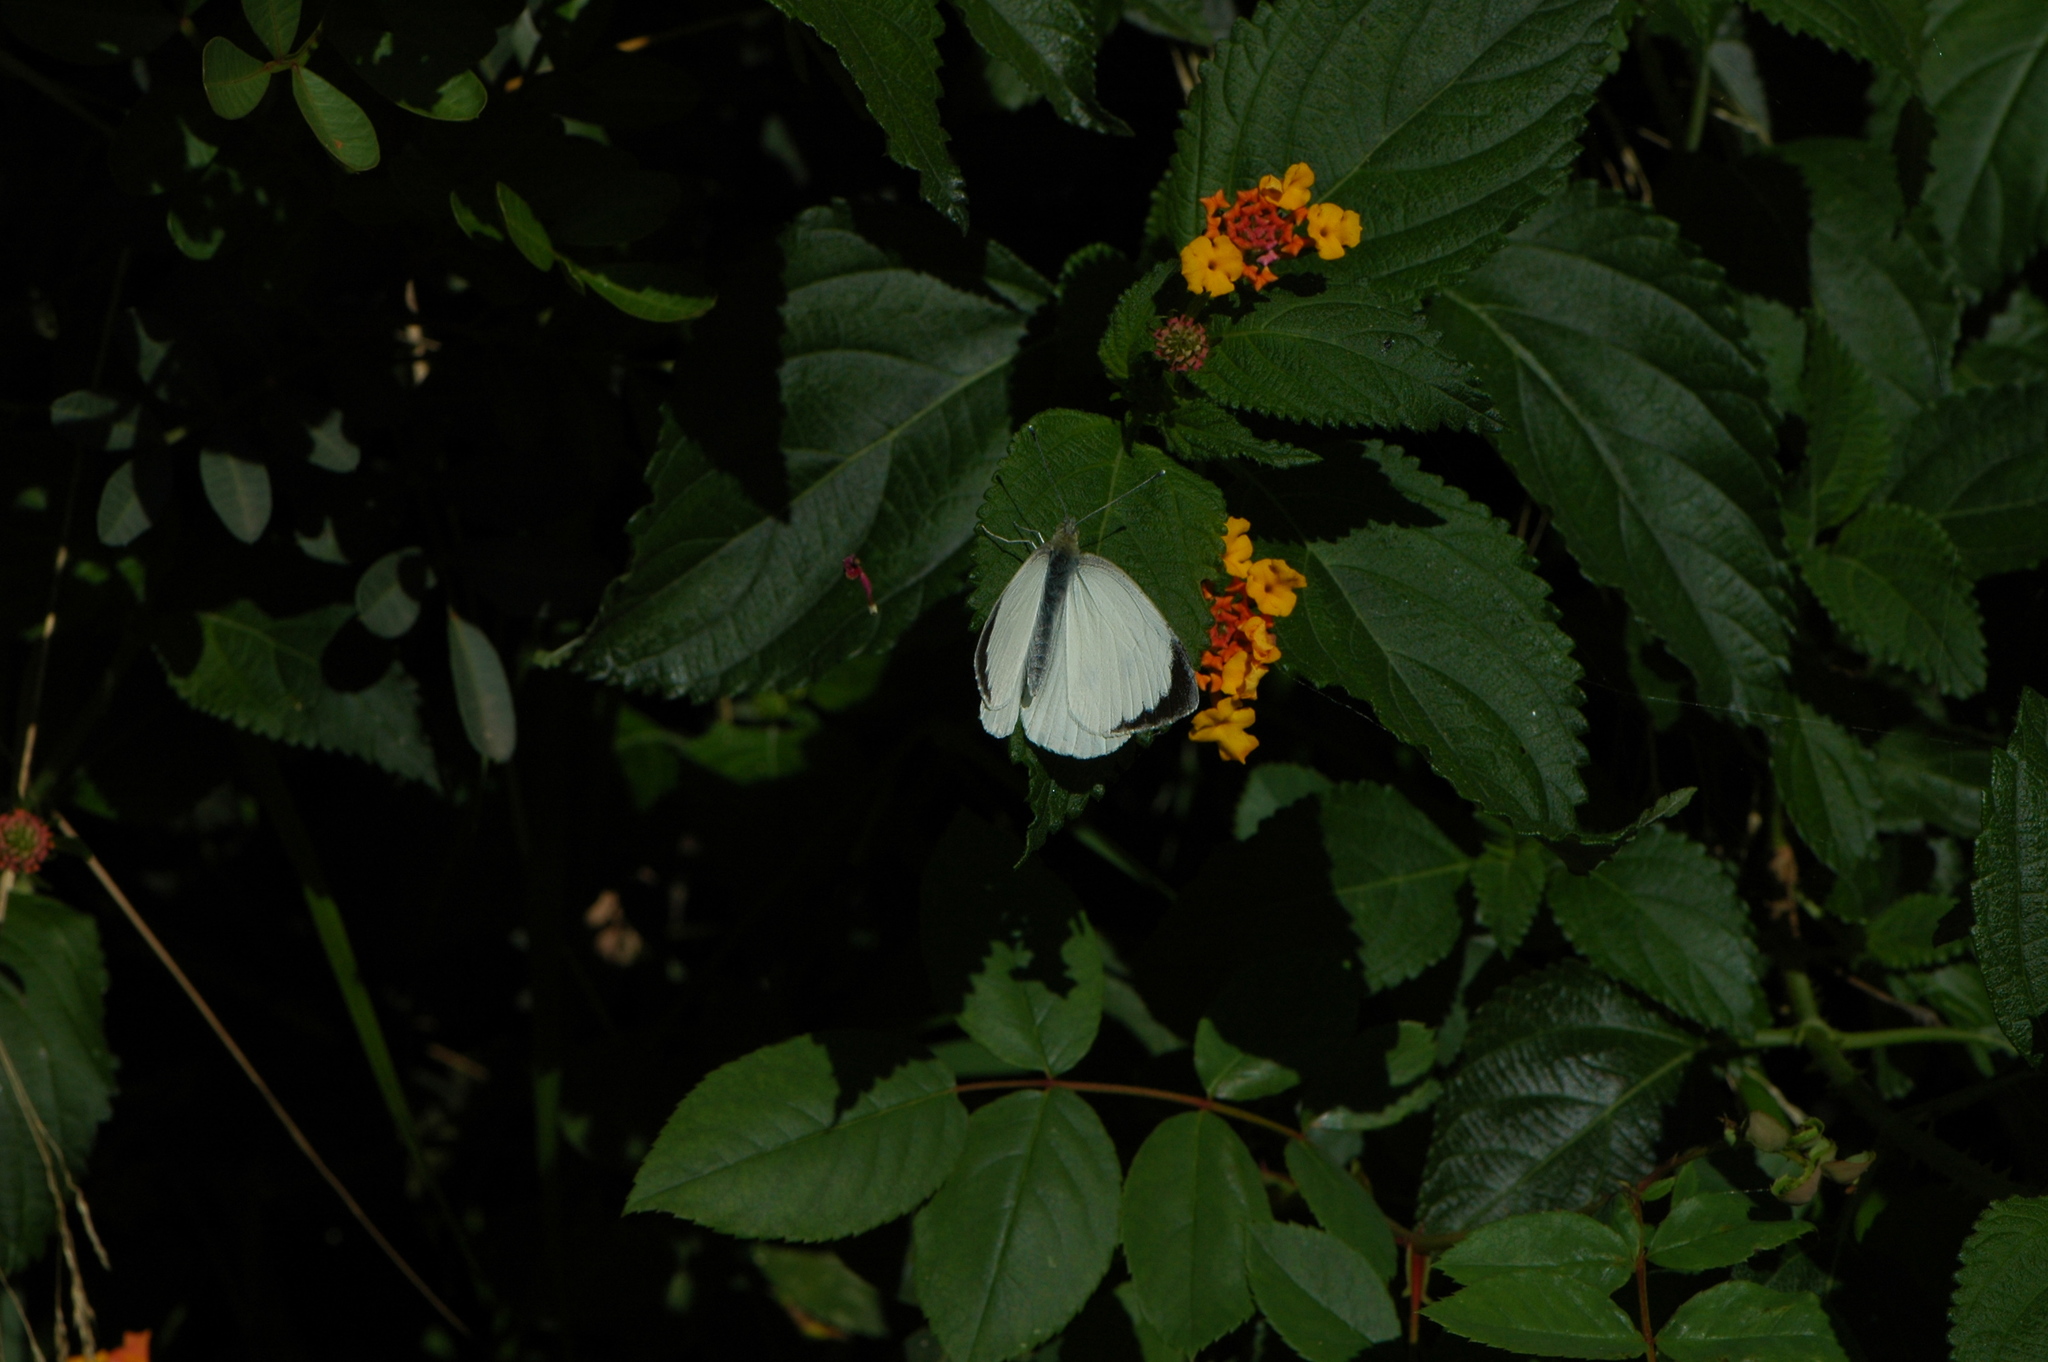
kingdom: Animalia
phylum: Arthropoda
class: Insecta
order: Lepidoptera
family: Pieridae
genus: Pieris
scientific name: Pieris brassicae
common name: Large white
